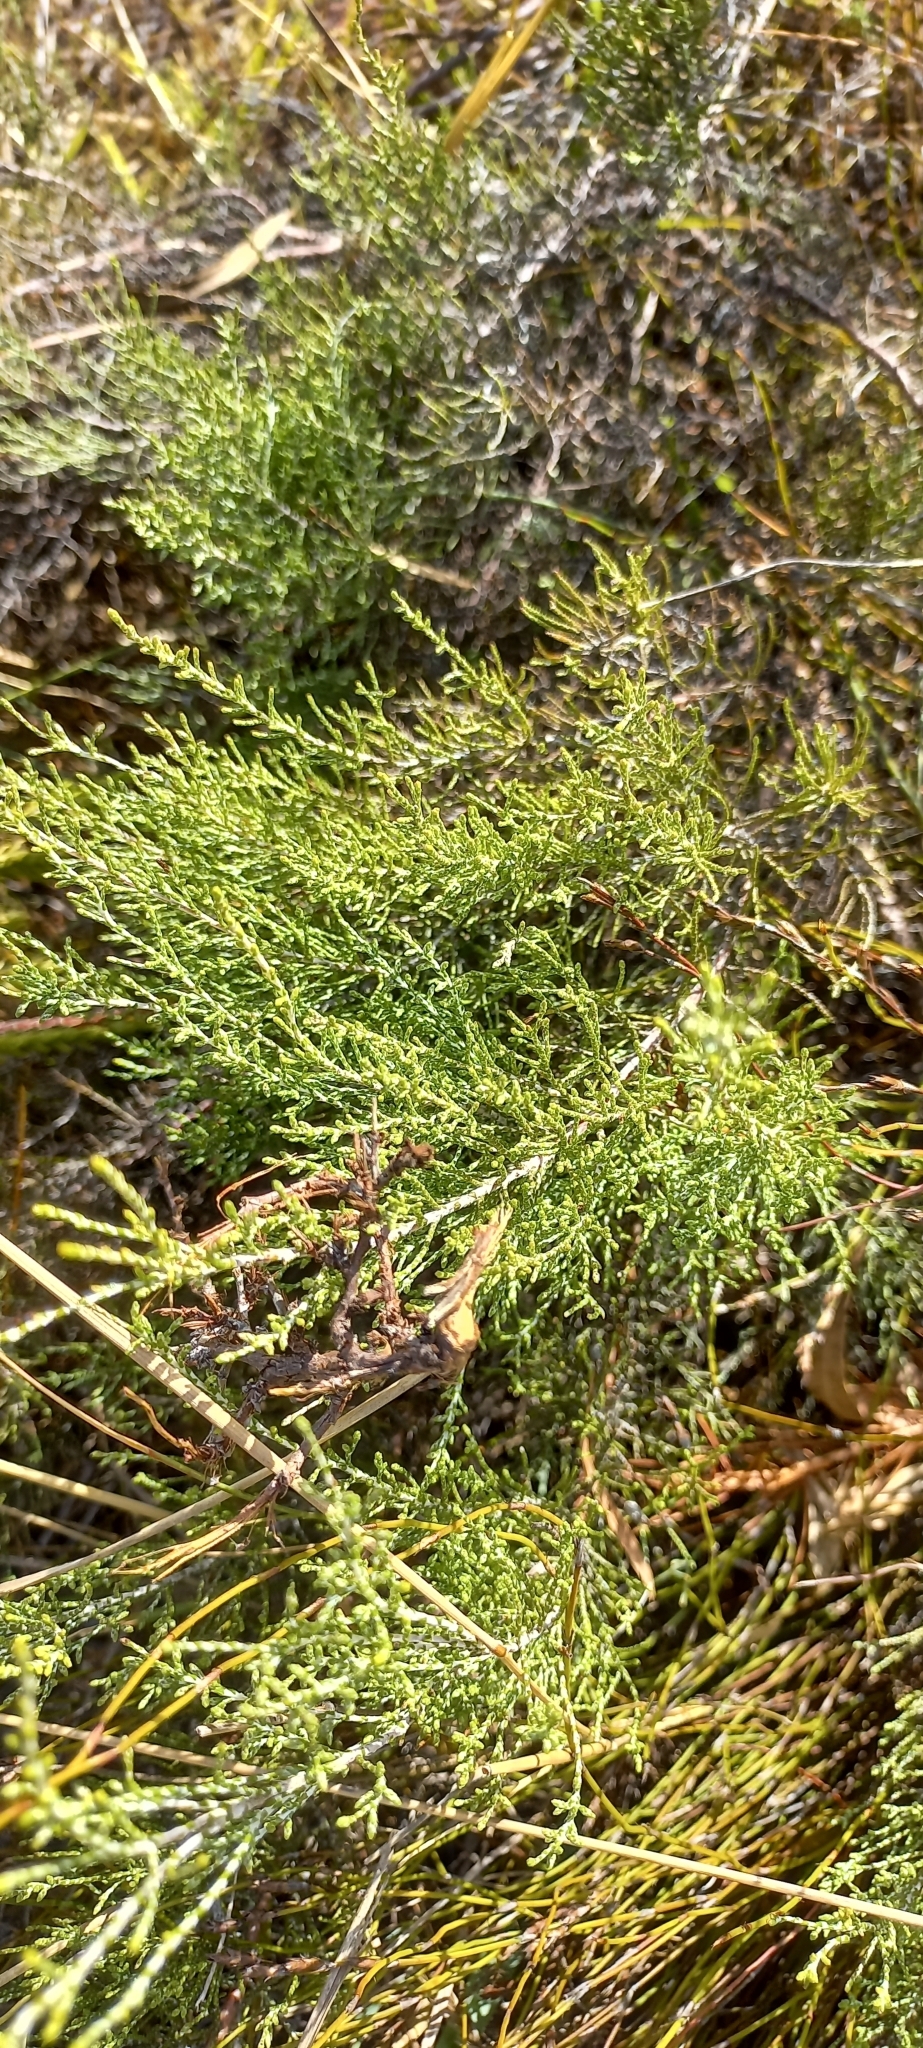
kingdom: Plantae
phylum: Tracheophyta
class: Magnoliopsida
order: Asterales
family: Asteraceae
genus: Dicerothamnus
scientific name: Dicerothamnus rhinocerotis
